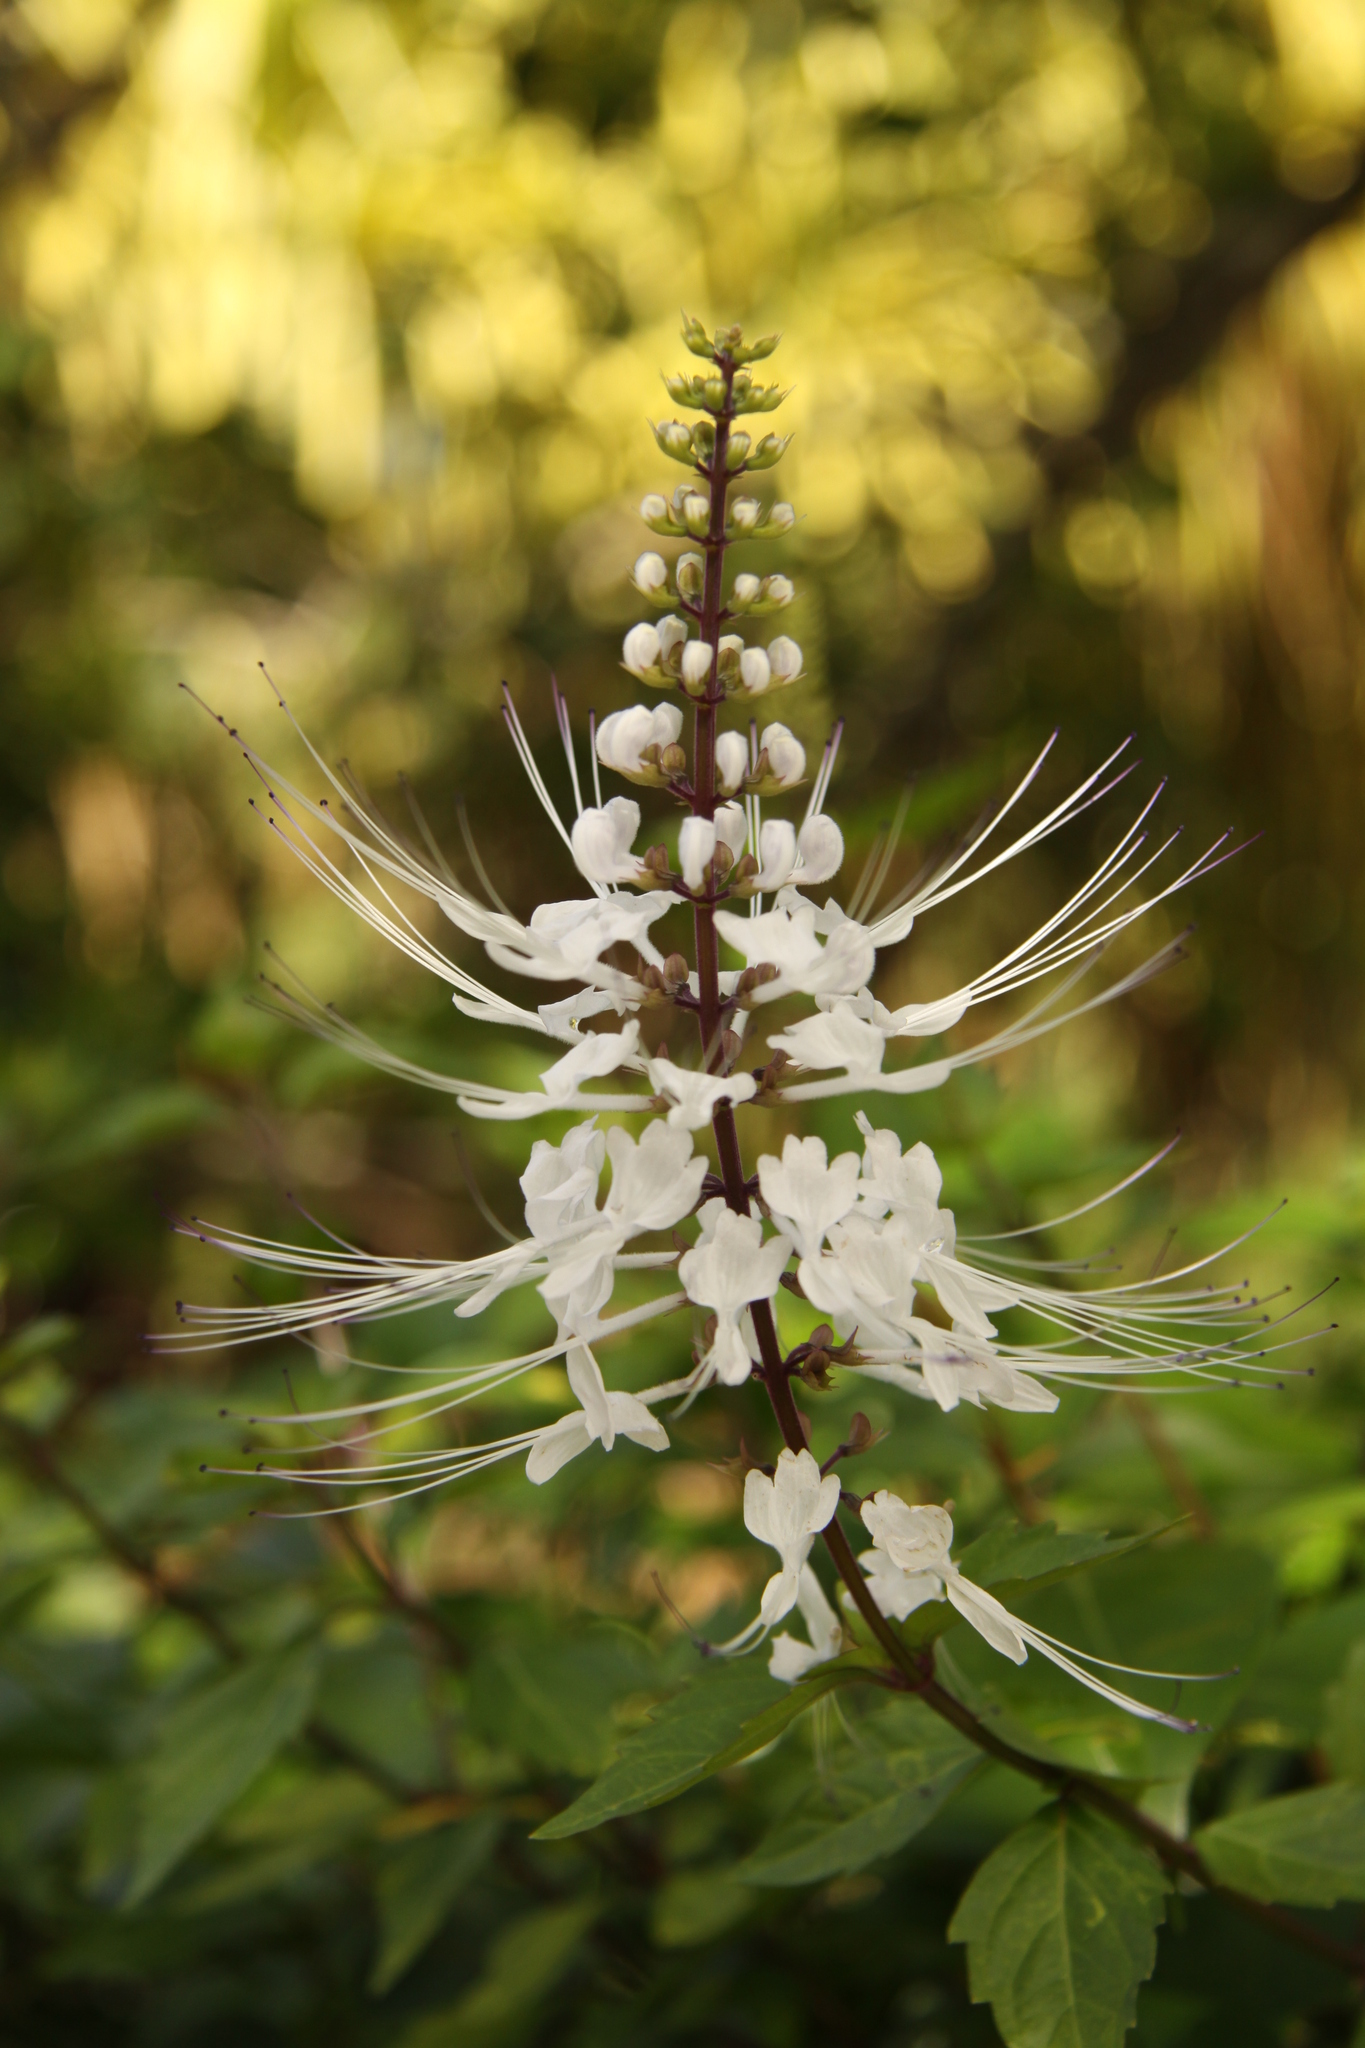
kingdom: Plantae
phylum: Tracheophyta
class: Magnoliopsida
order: Lamiales
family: Lamiaceae
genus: Orthosiphon
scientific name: Orthosiphon aristatus
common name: Whiskerplant
